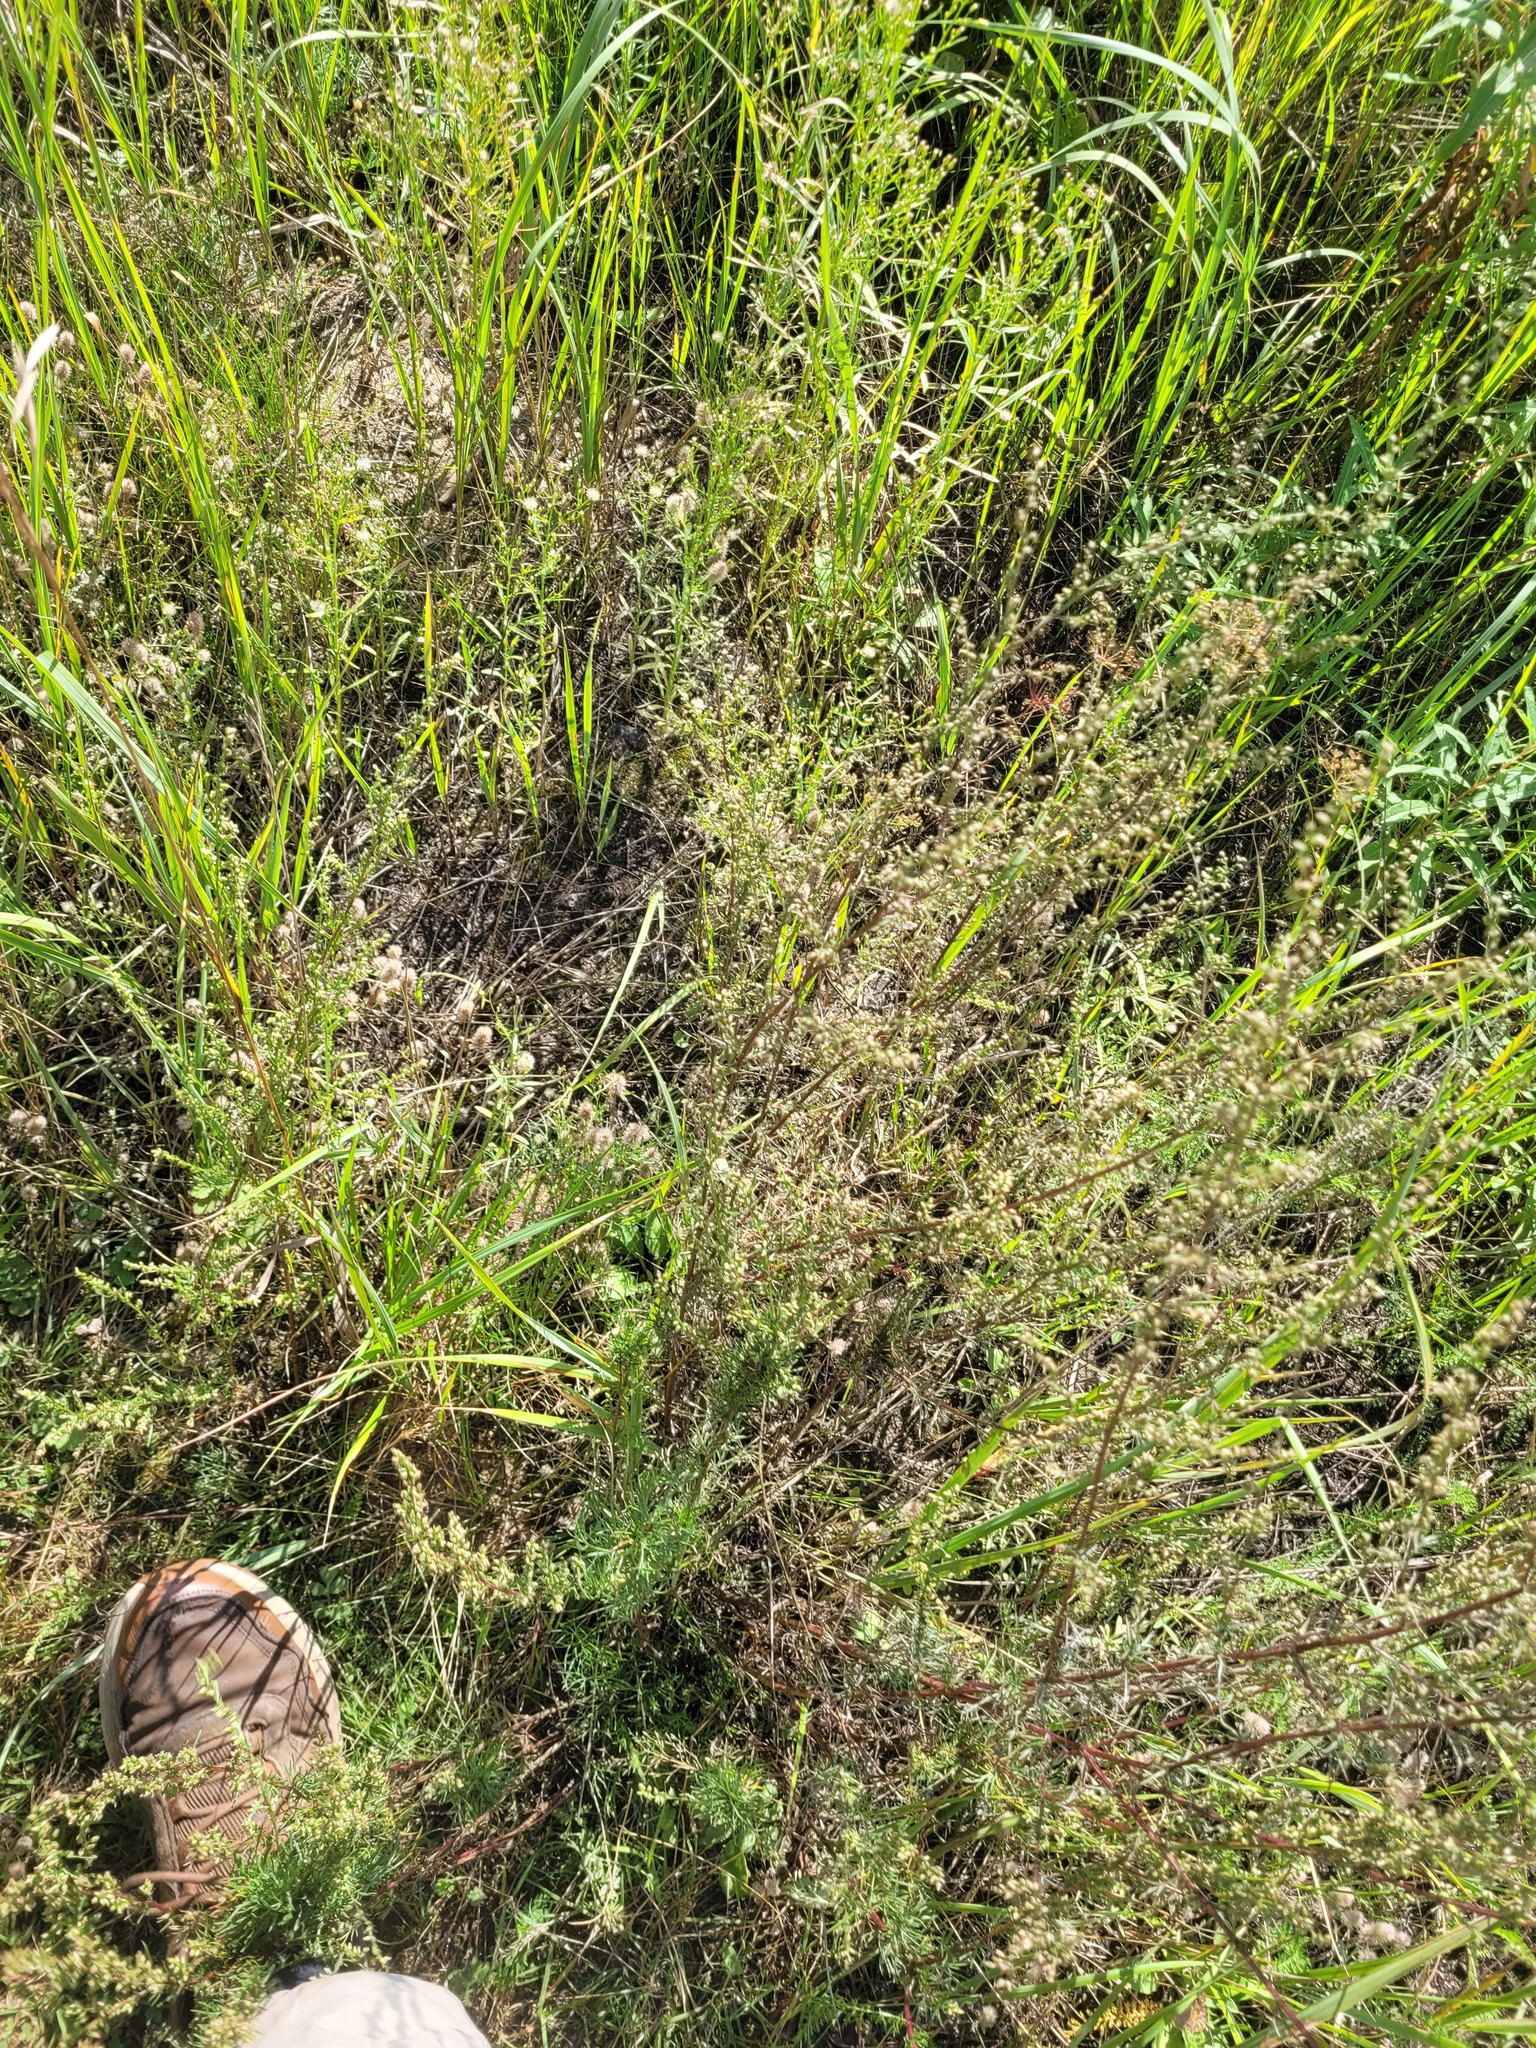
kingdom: Plantae
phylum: Tracheophyta
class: Magnoliopsida
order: Asterales
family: Asteraceae
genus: Artemisia
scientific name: Artemisia campestris
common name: Field wormwood
